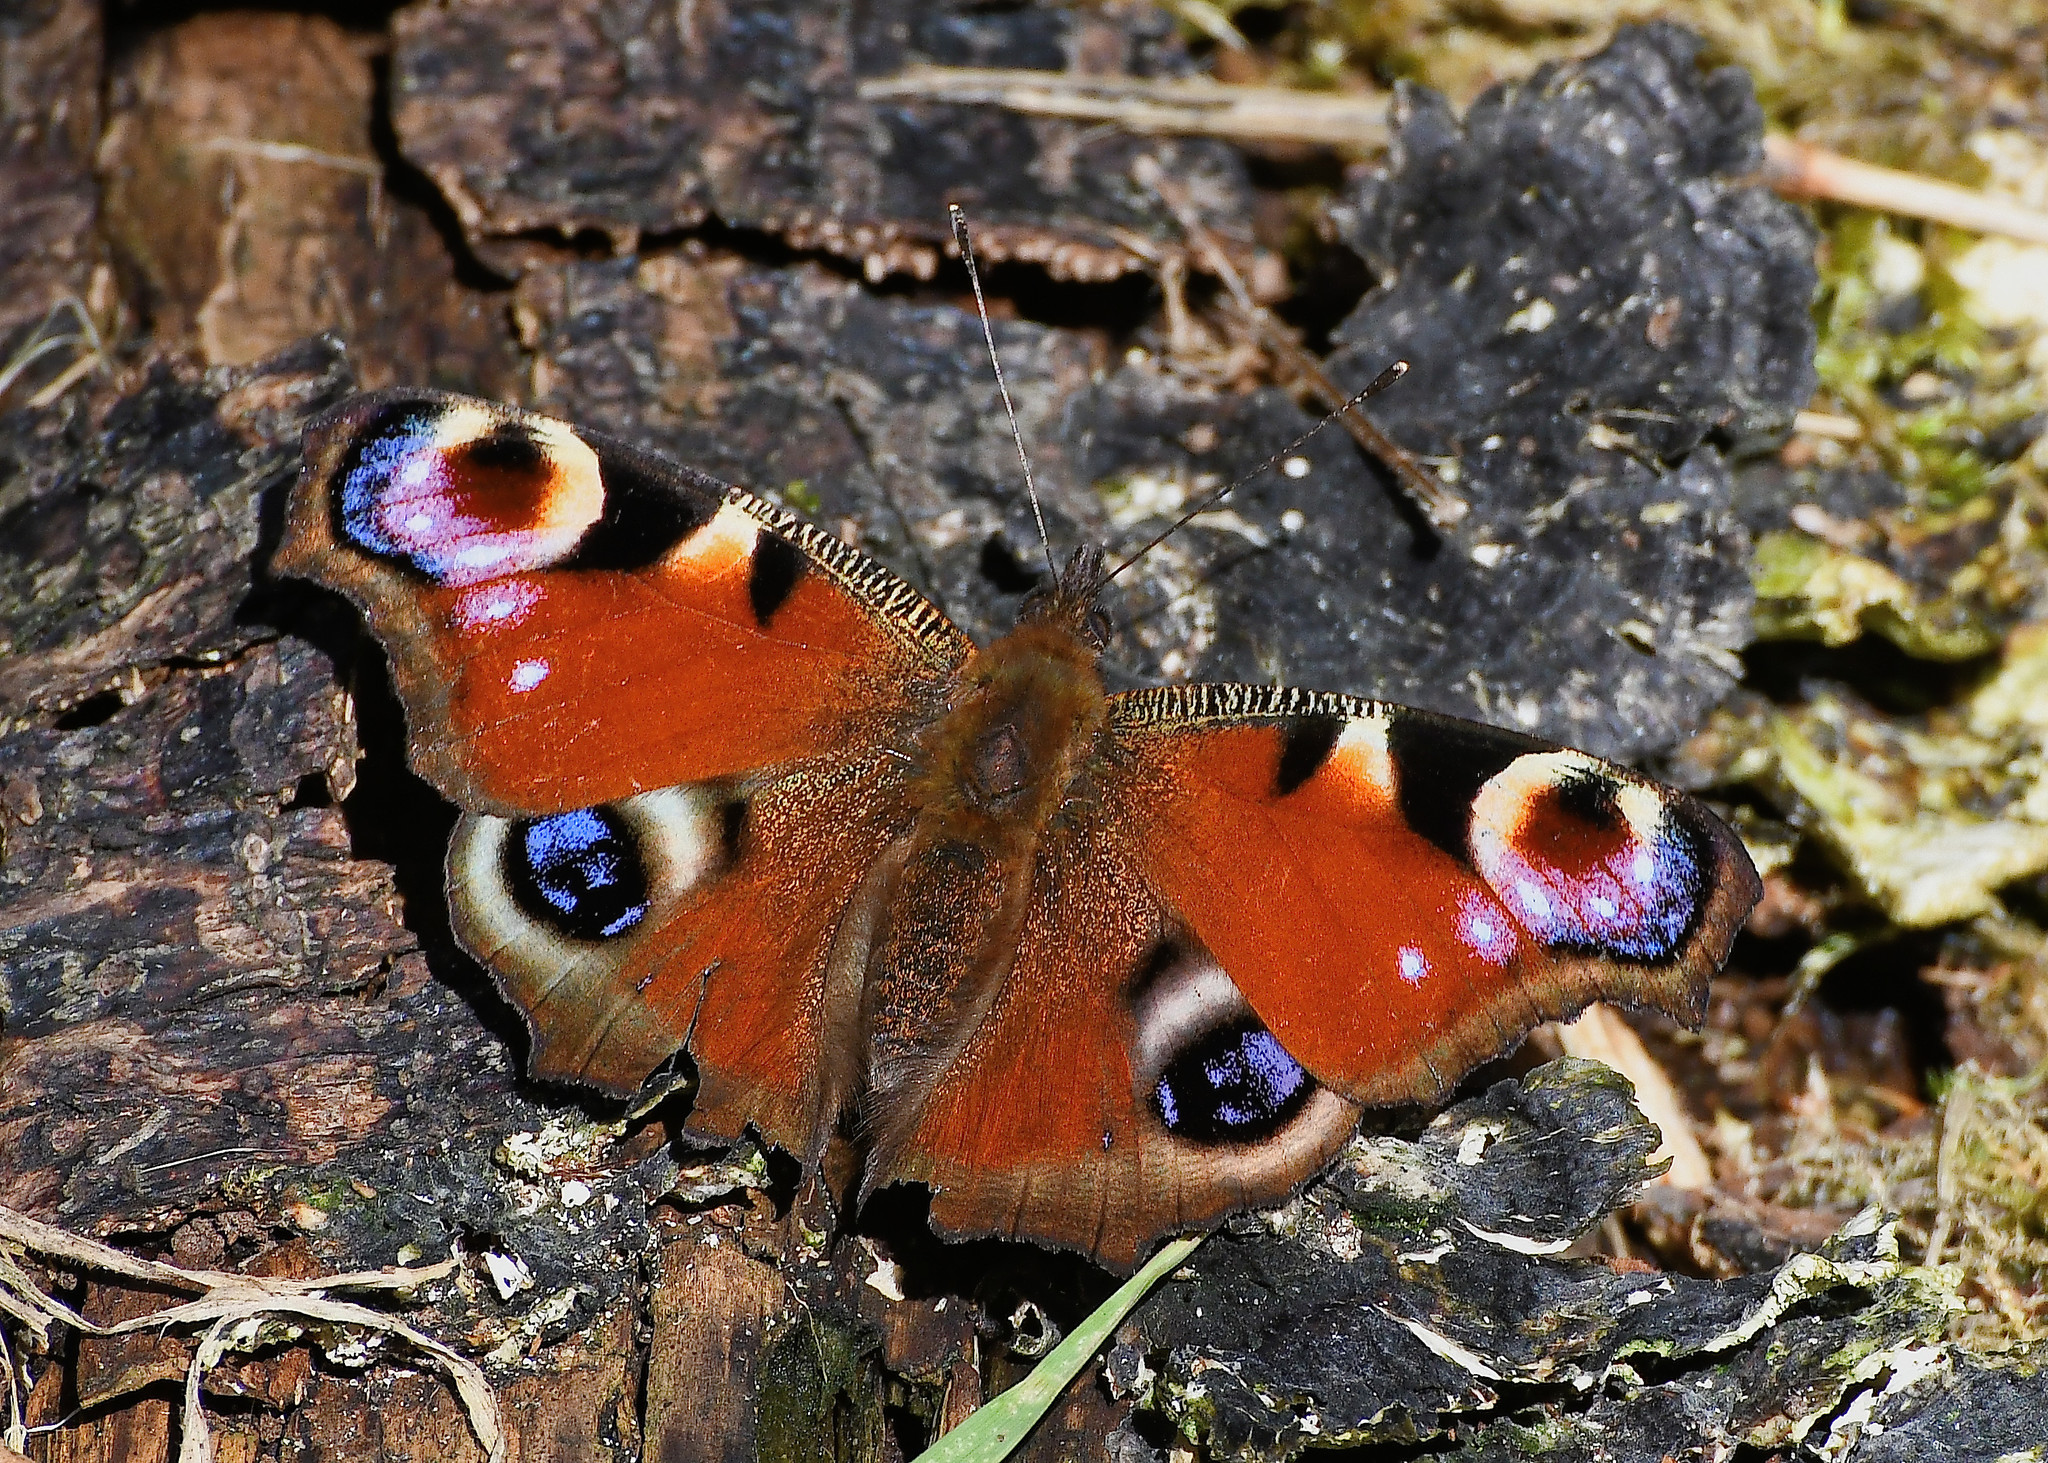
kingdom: Animalia
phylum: Arthropoda
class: Insecta
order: Lepidoptera
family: Nymphalidae
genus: Aglais
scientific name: Aglais io
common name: Peacock
